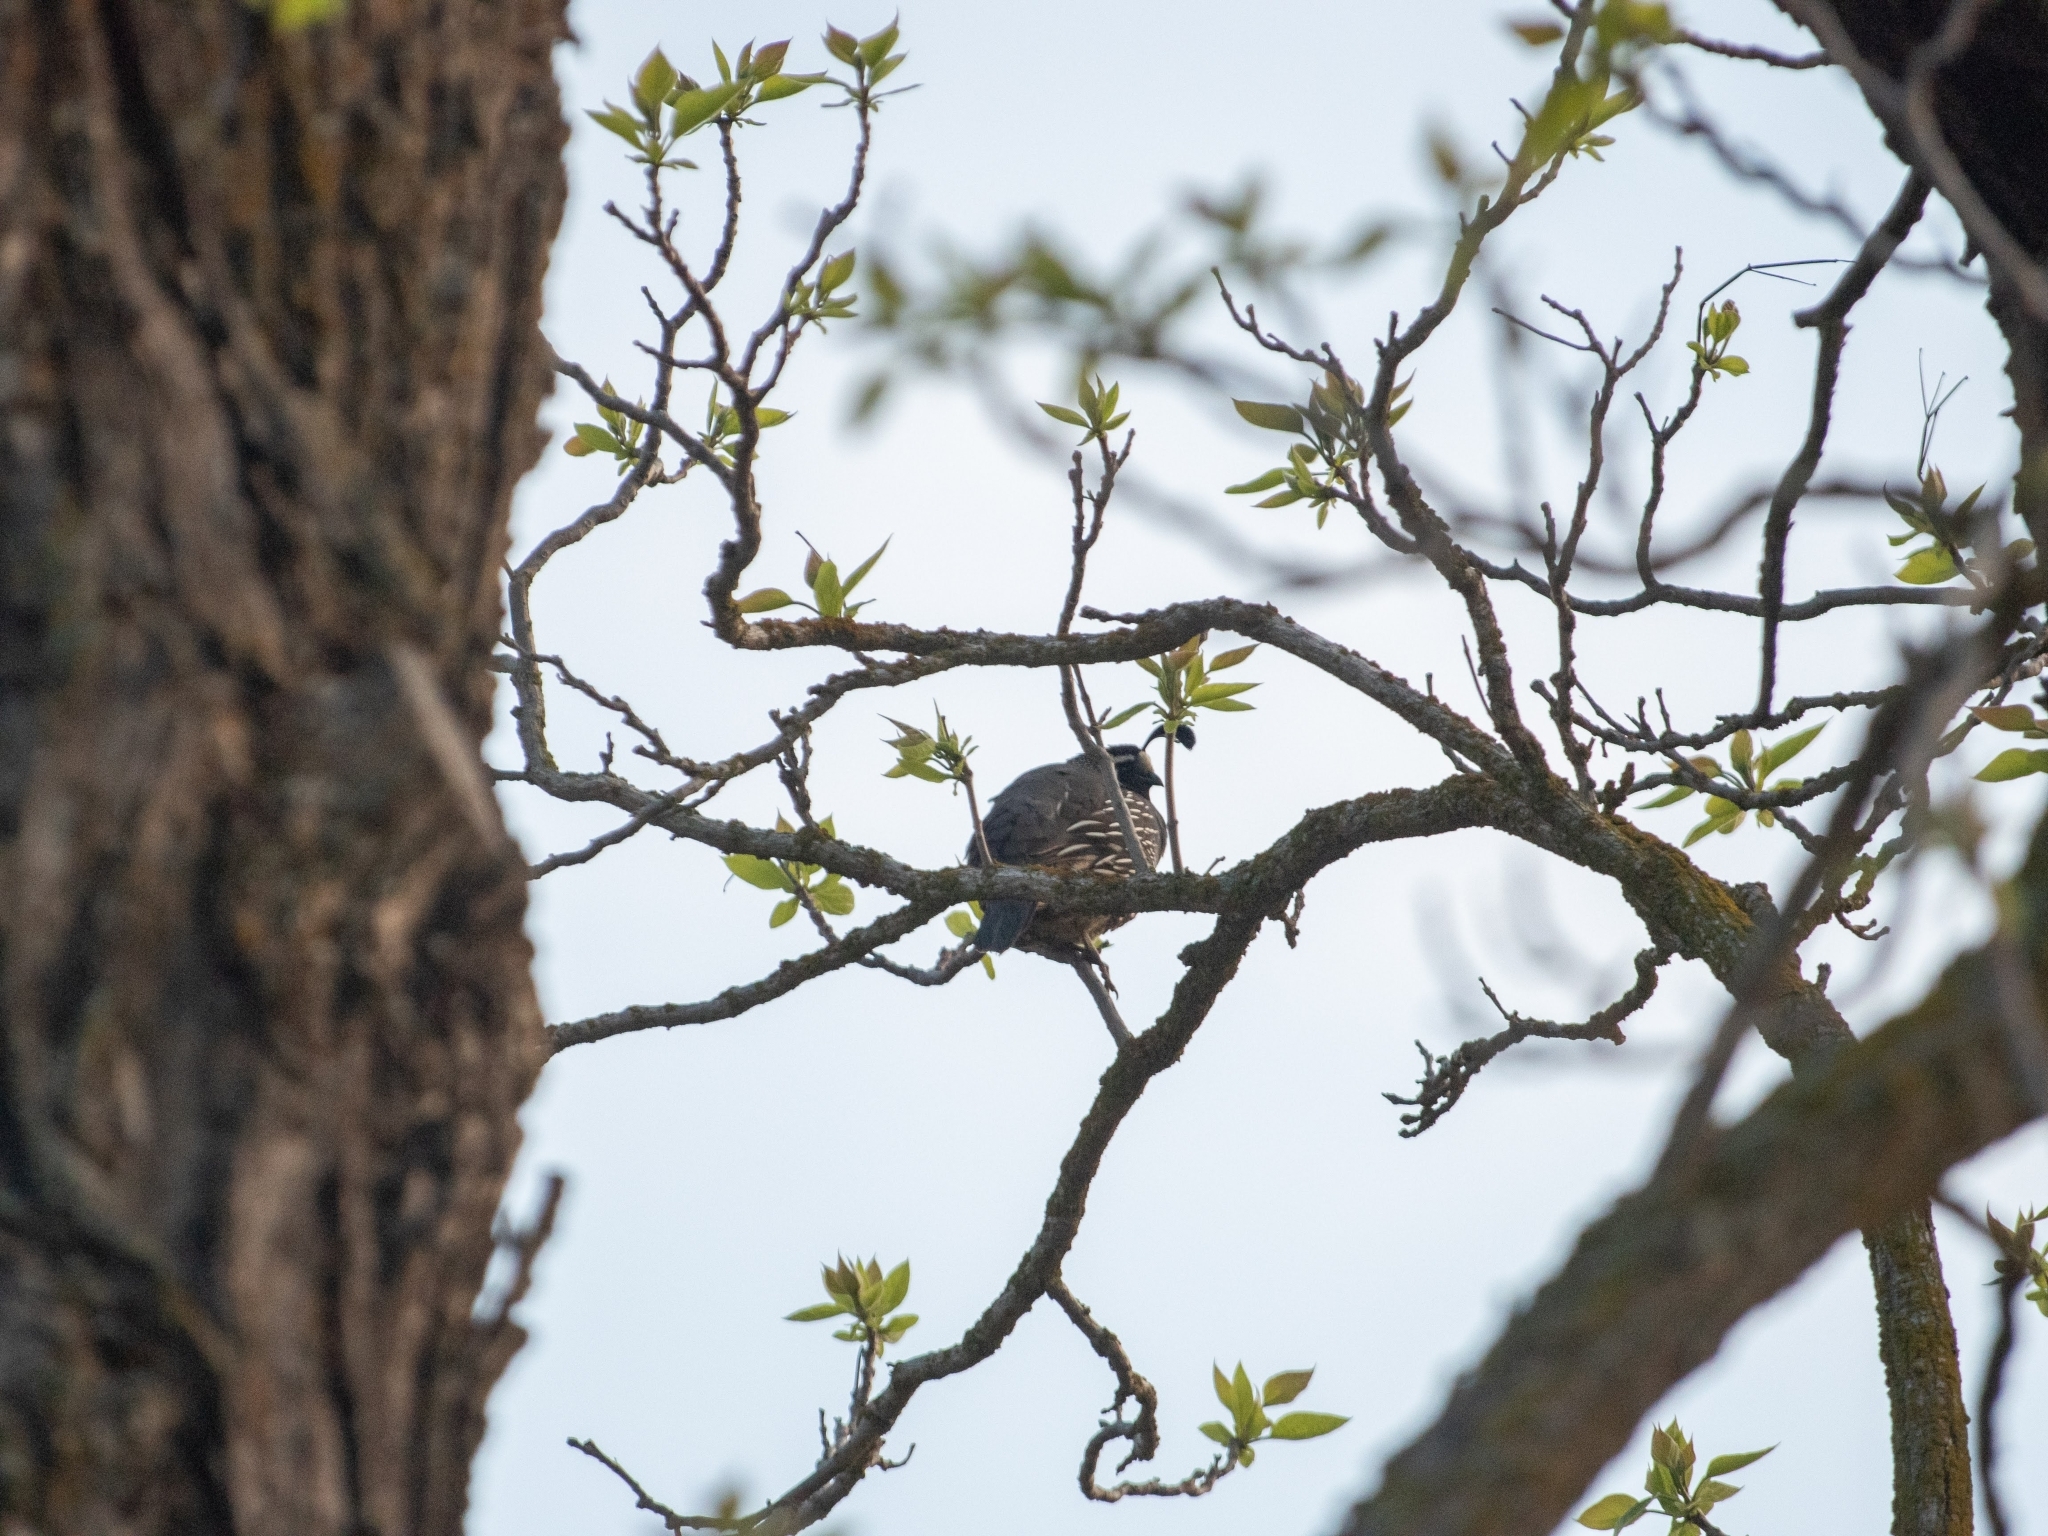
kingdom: Animalia
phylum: Chordata
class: Aves
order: Galliformes
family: Odontophoridae
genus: Callipepla
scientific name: Callipepla californica
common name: California quail
